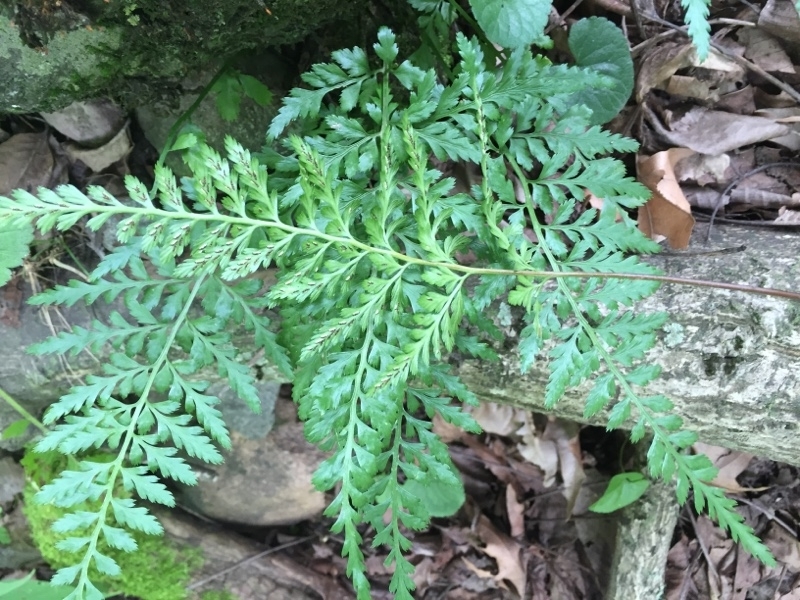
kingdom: Plantae
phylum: Tracheophyta
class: Polypodiopsida
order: Polypodiales
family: Aspleniaceae
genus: Asplenium
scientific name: Asplenium adiantum-nigrum
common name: Black spleenwort
